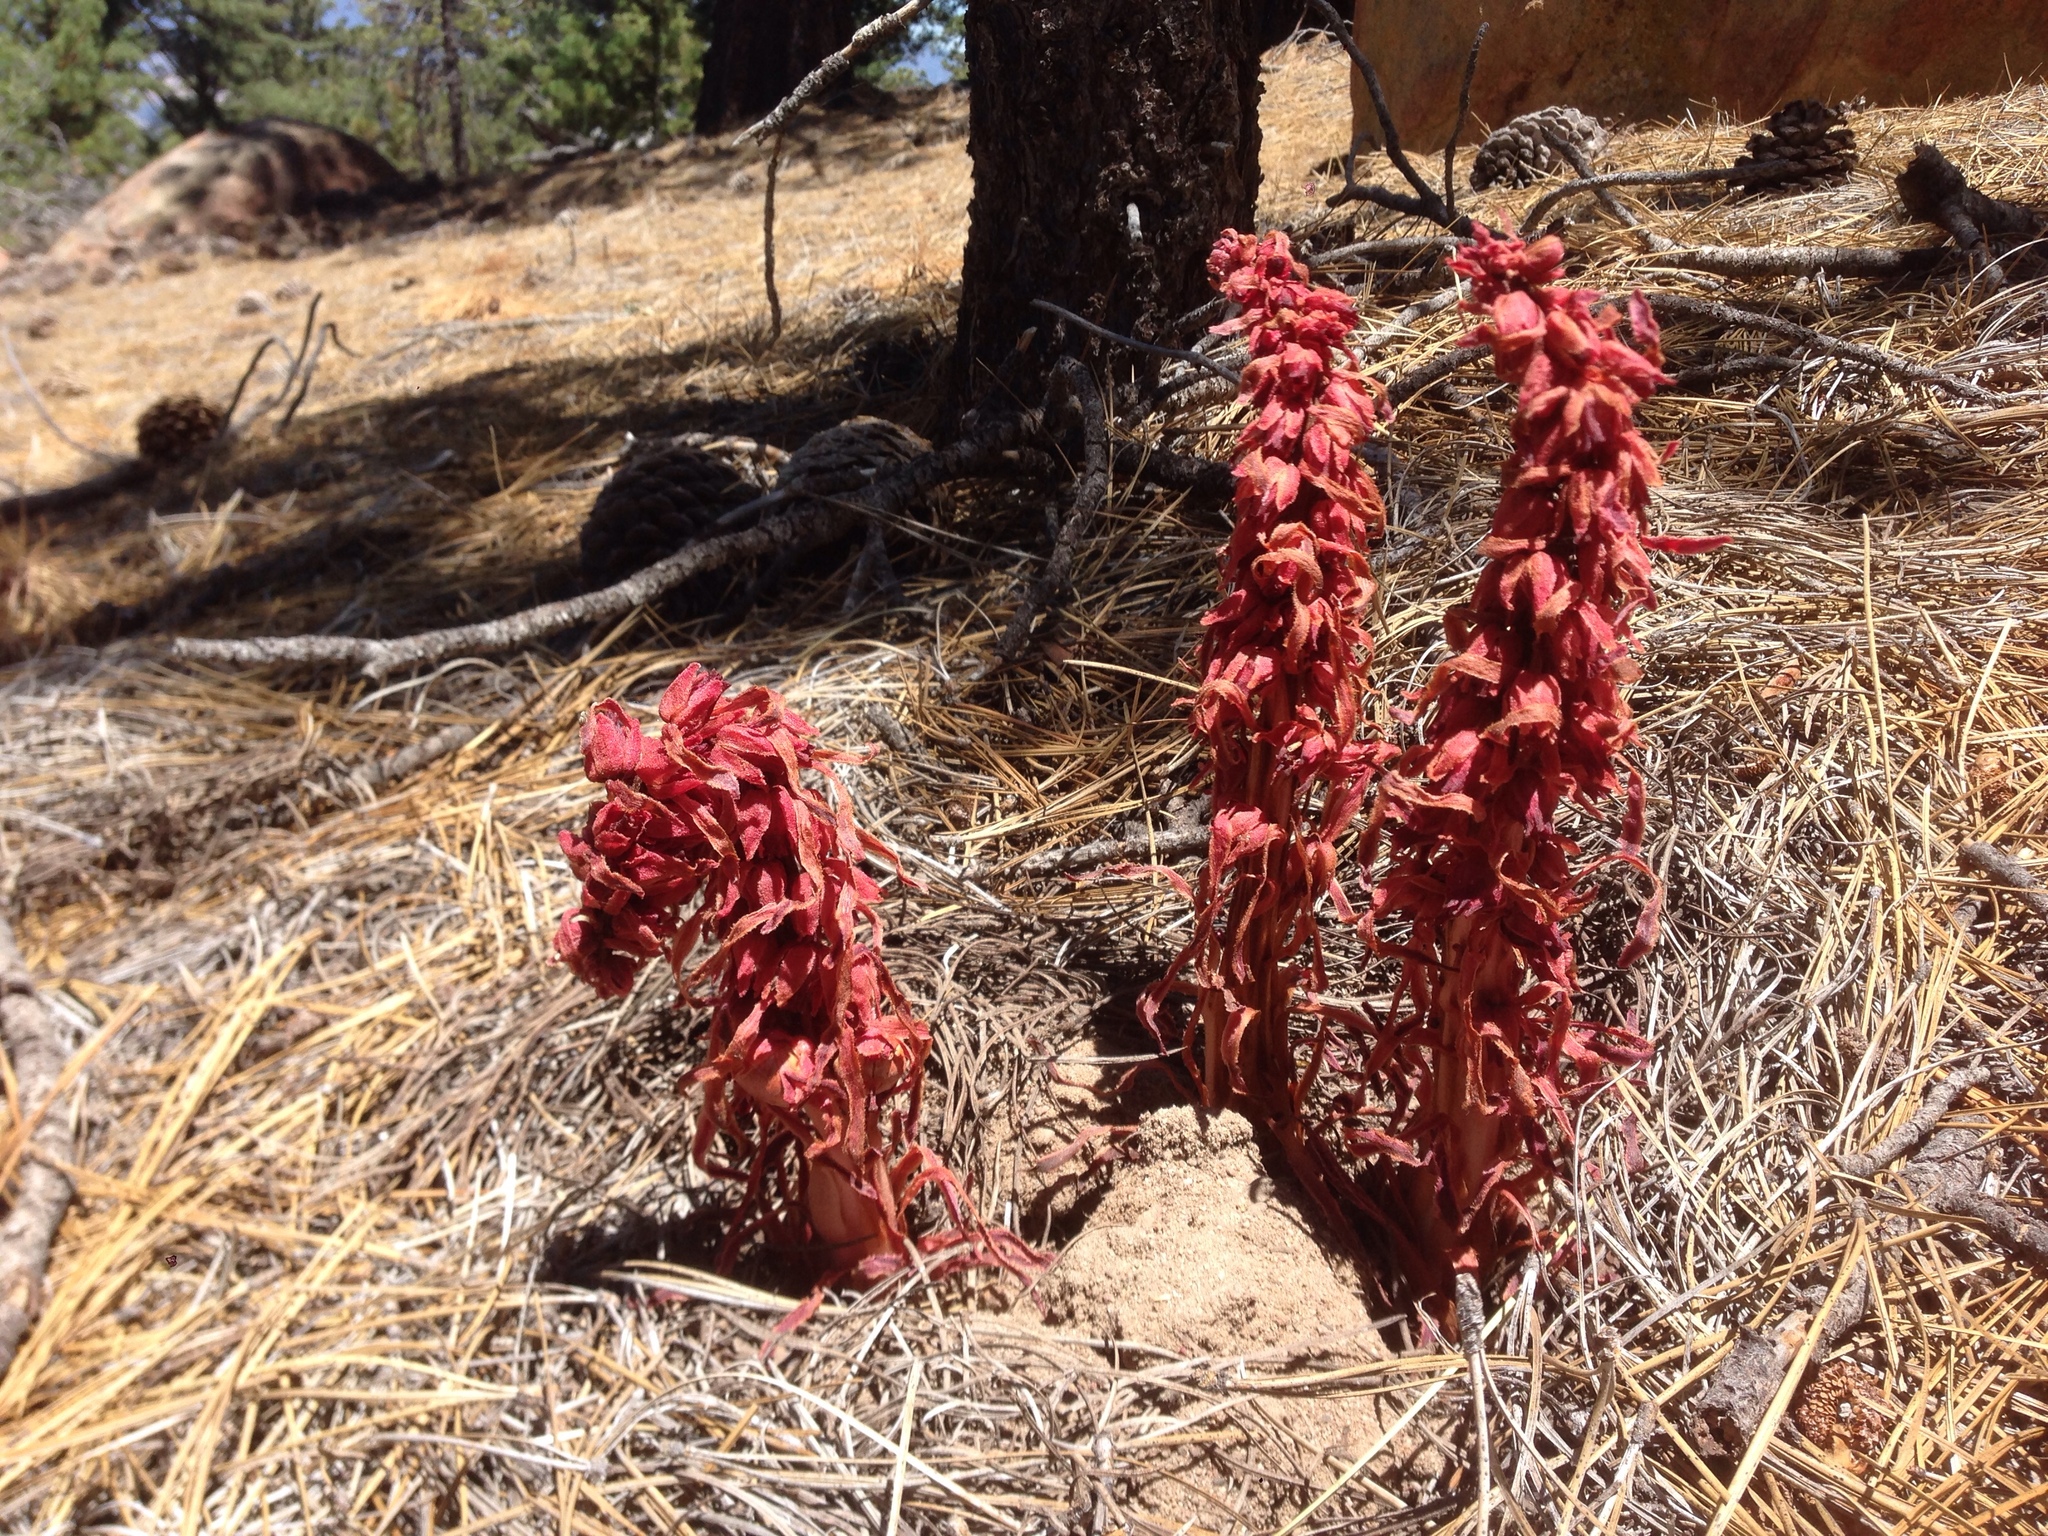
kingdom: Plantae
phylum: Tracheophyta
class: Magnoliopsida
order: Ericales
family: Ericaceae
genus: Sarcodes
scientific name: Sarcodes sanguinea
